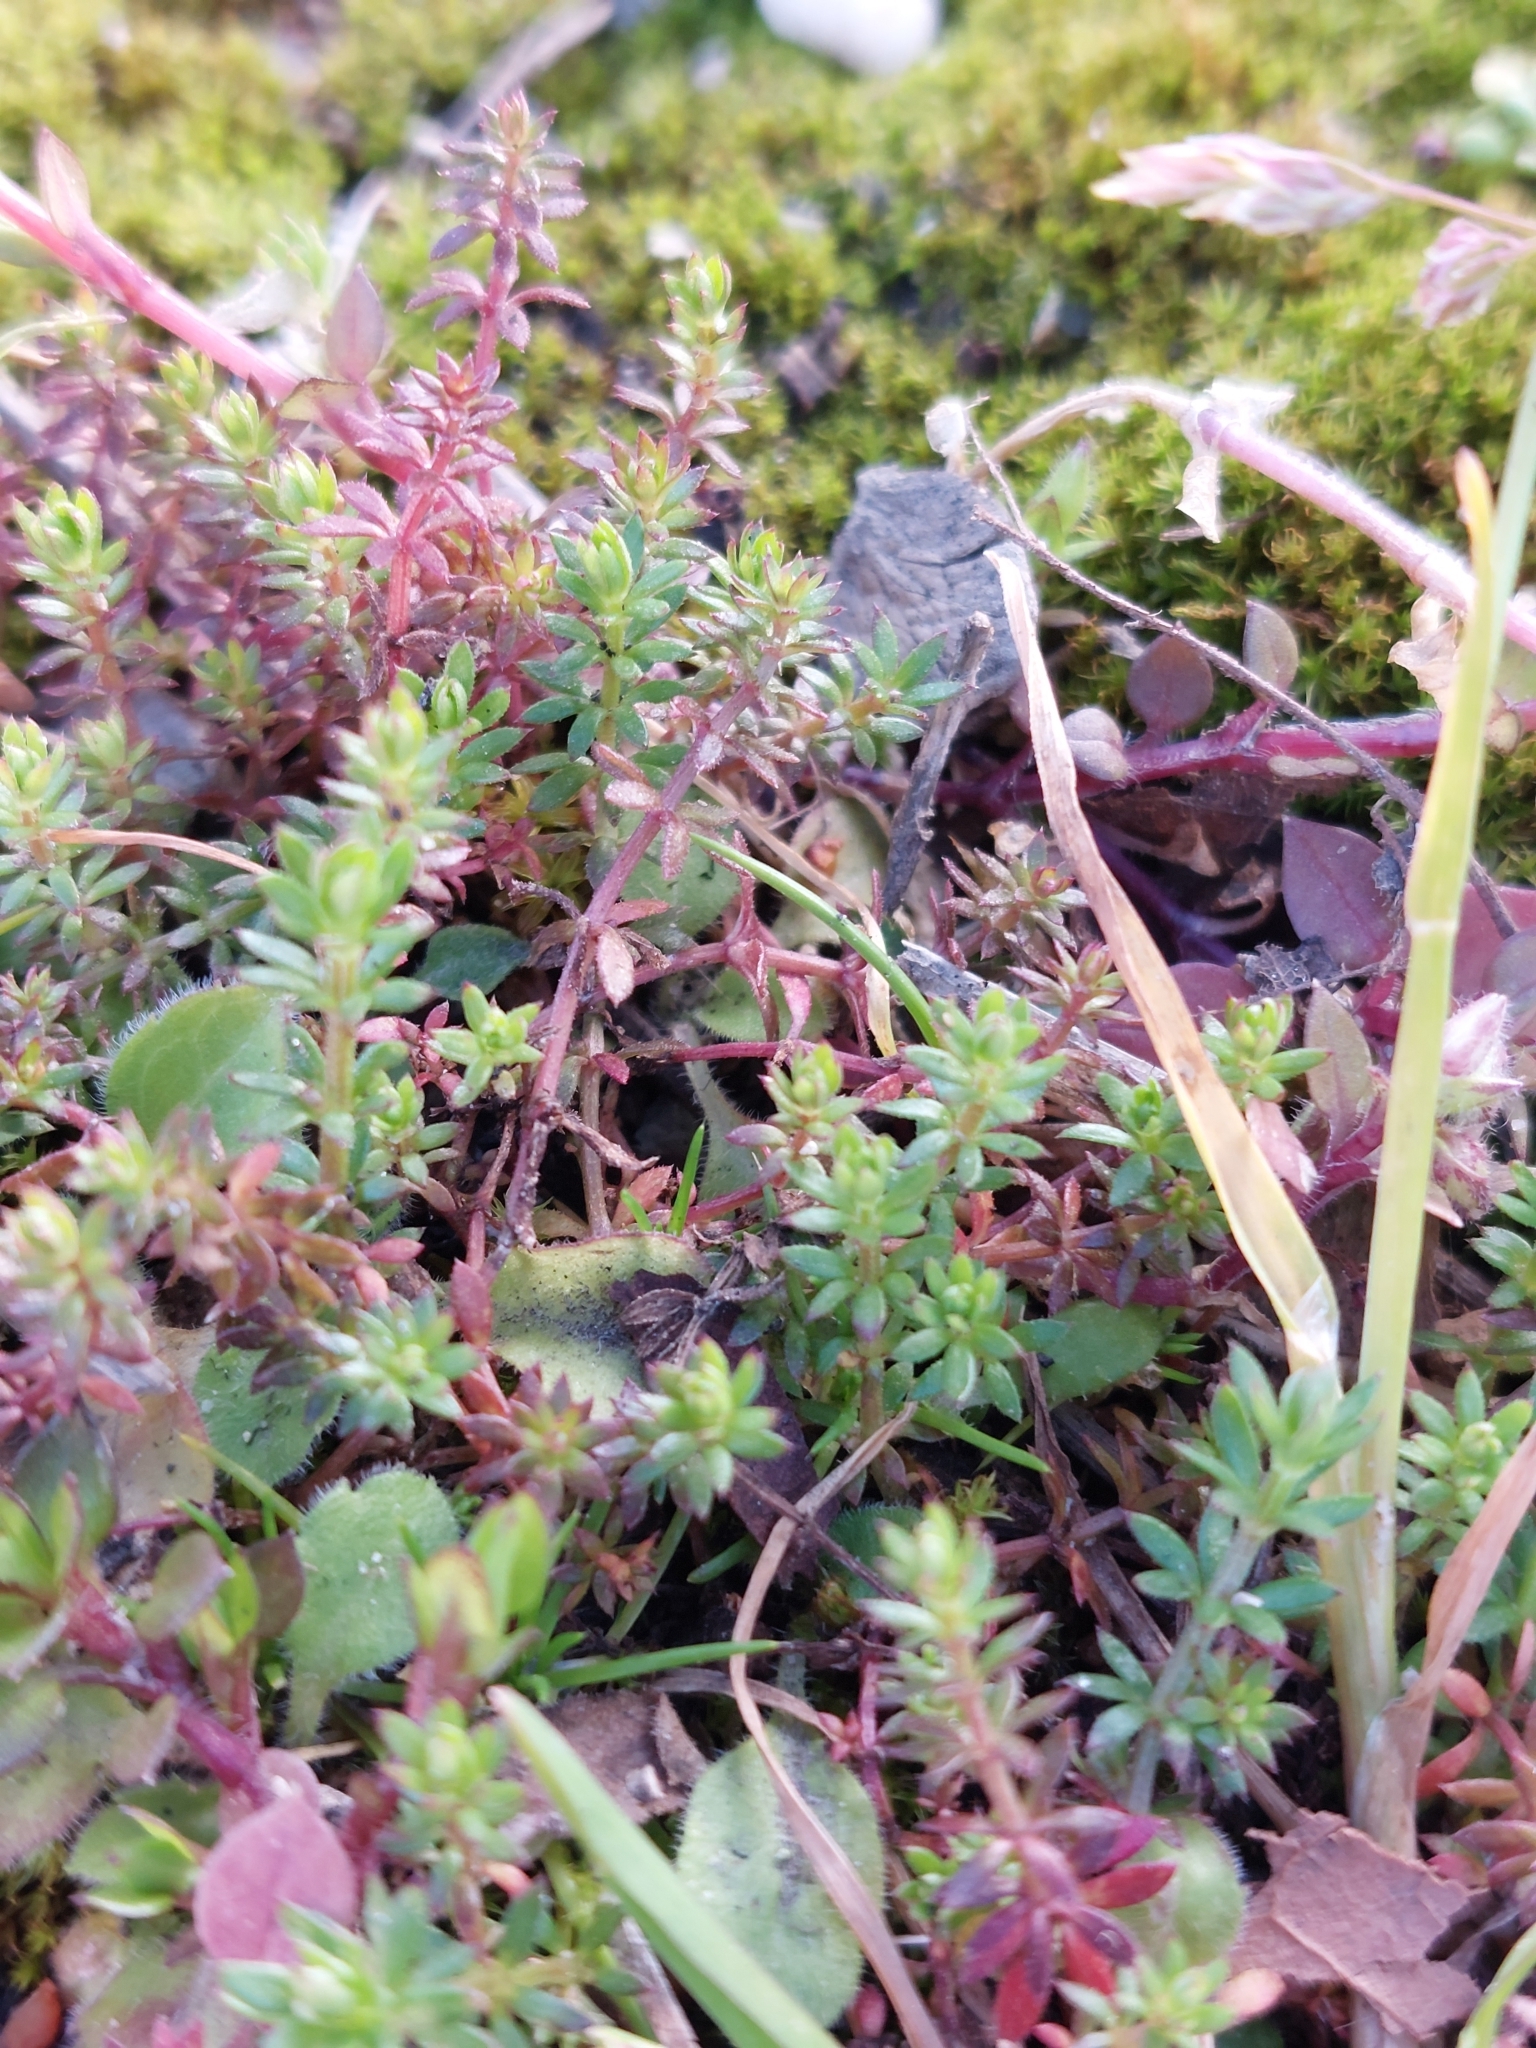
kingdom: Plantae
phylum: Tracheophyta
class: Magnoliopsida
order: Gentianales
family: Rubiaceae
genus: Sherardia
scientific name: Sherardia arvensis
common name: Field madder
